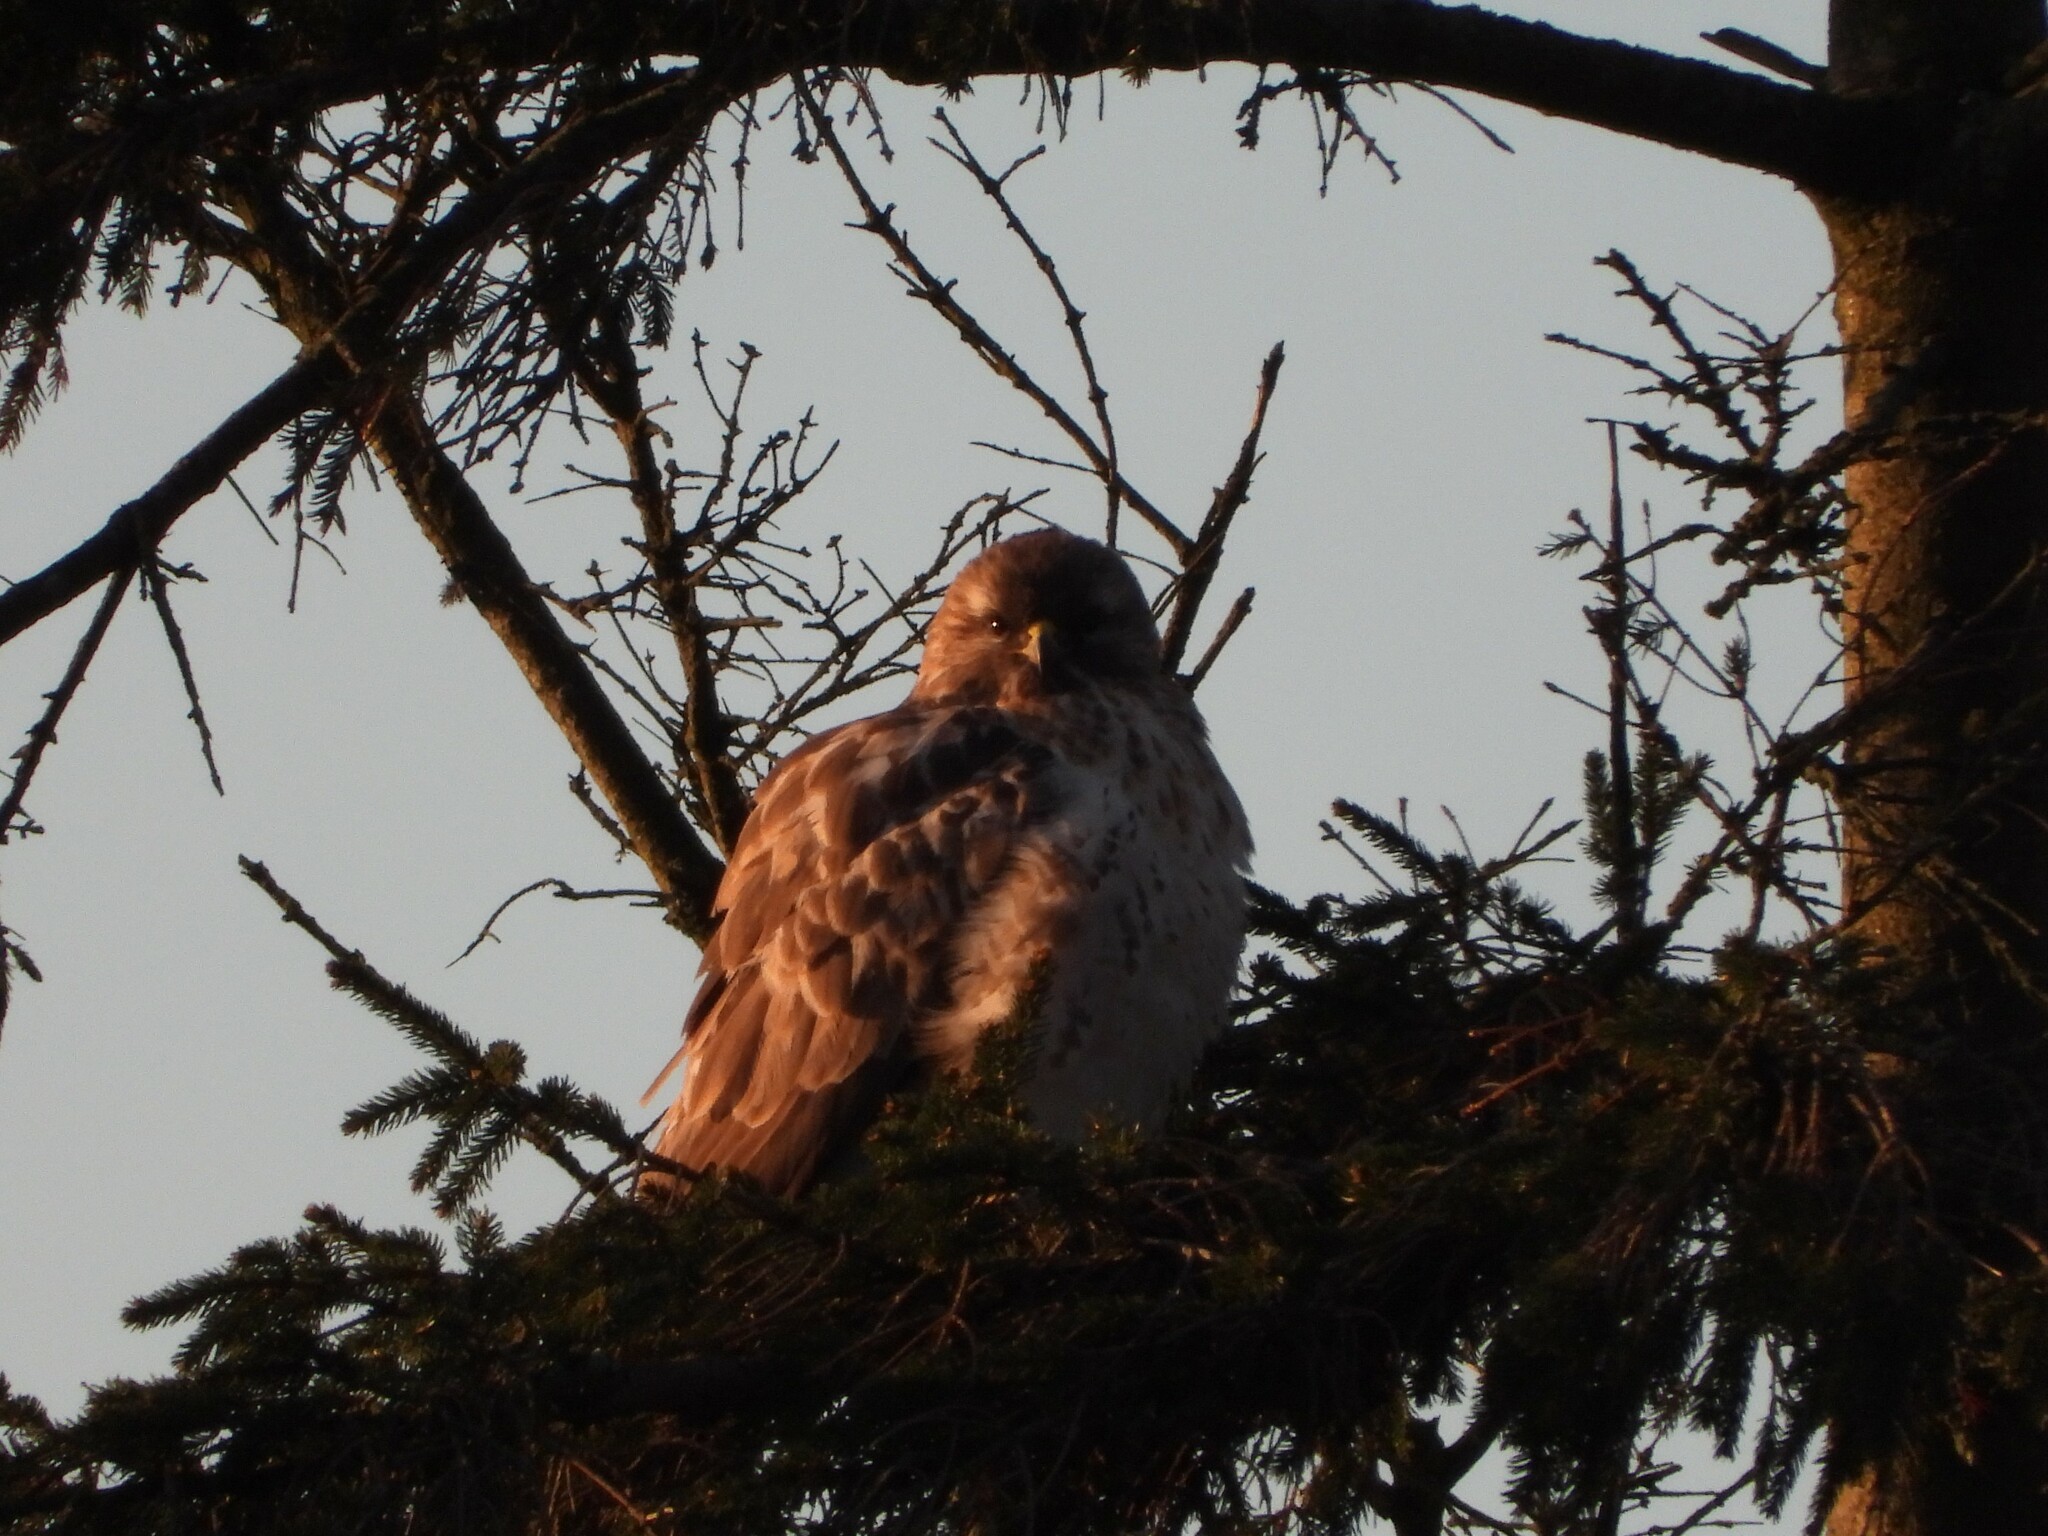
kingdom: Animalia
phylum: Chordata
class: Aves
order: Accipitriformes
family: Accipitridae
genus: Buteo
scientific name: Buteo buteo
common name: Common buzzard
